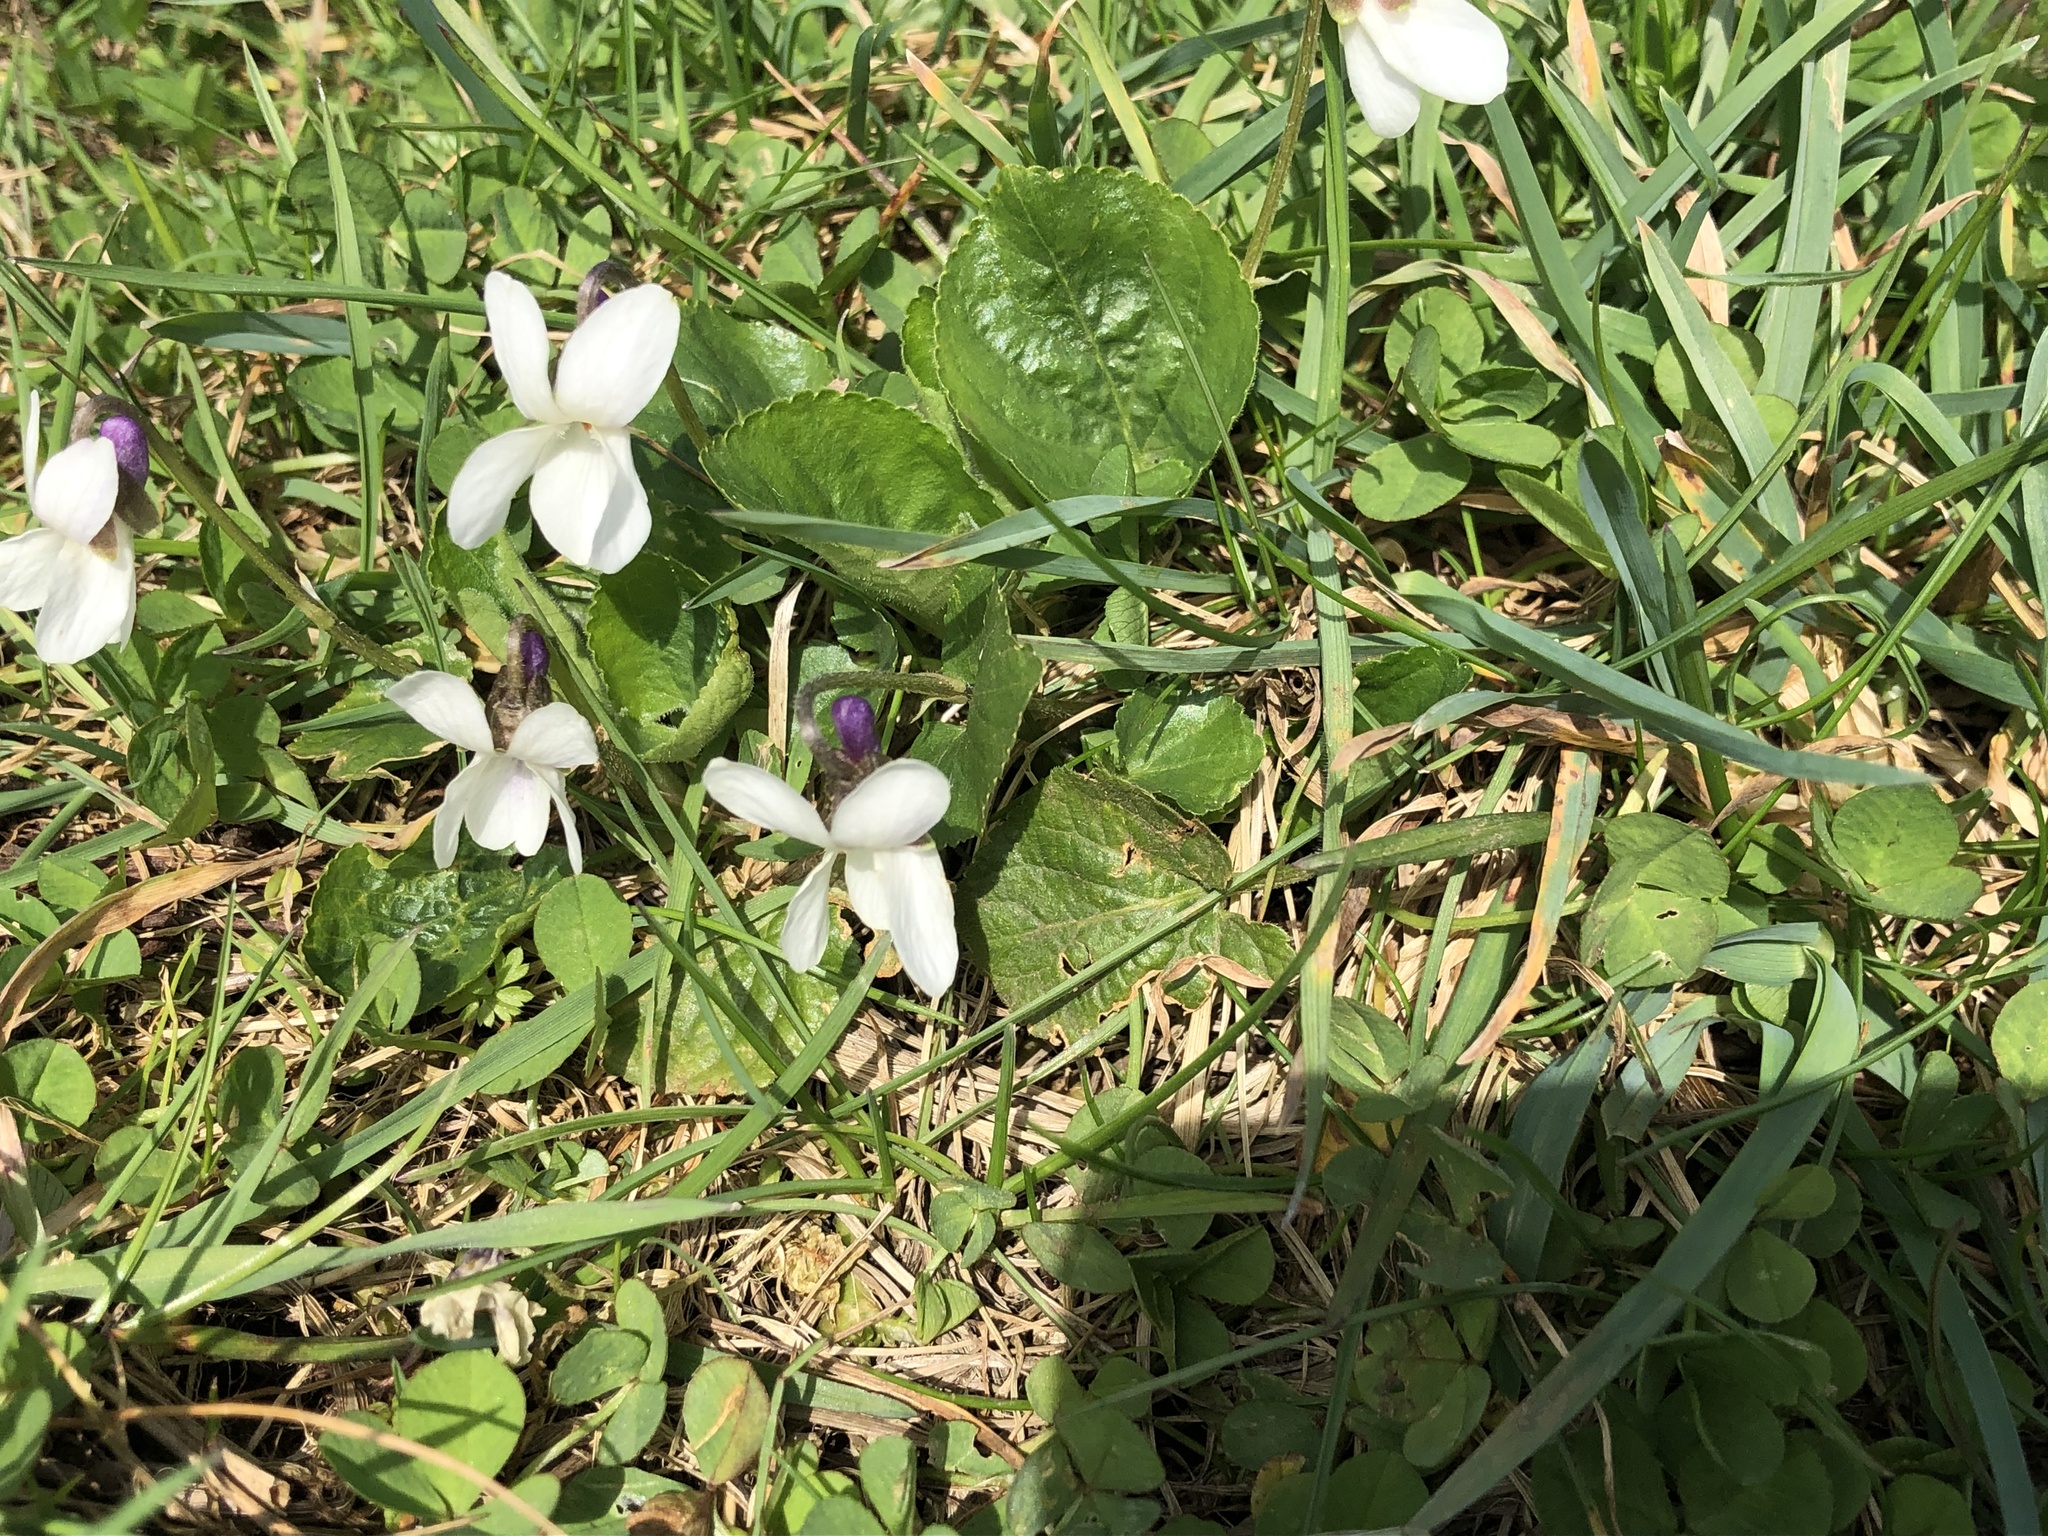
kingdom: Plantae
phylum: Tracheophyta
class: Magnoliopsida
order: Malpighiales
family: Violaceae
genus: Viola
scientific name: Viola odorata
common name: Sweet violet
